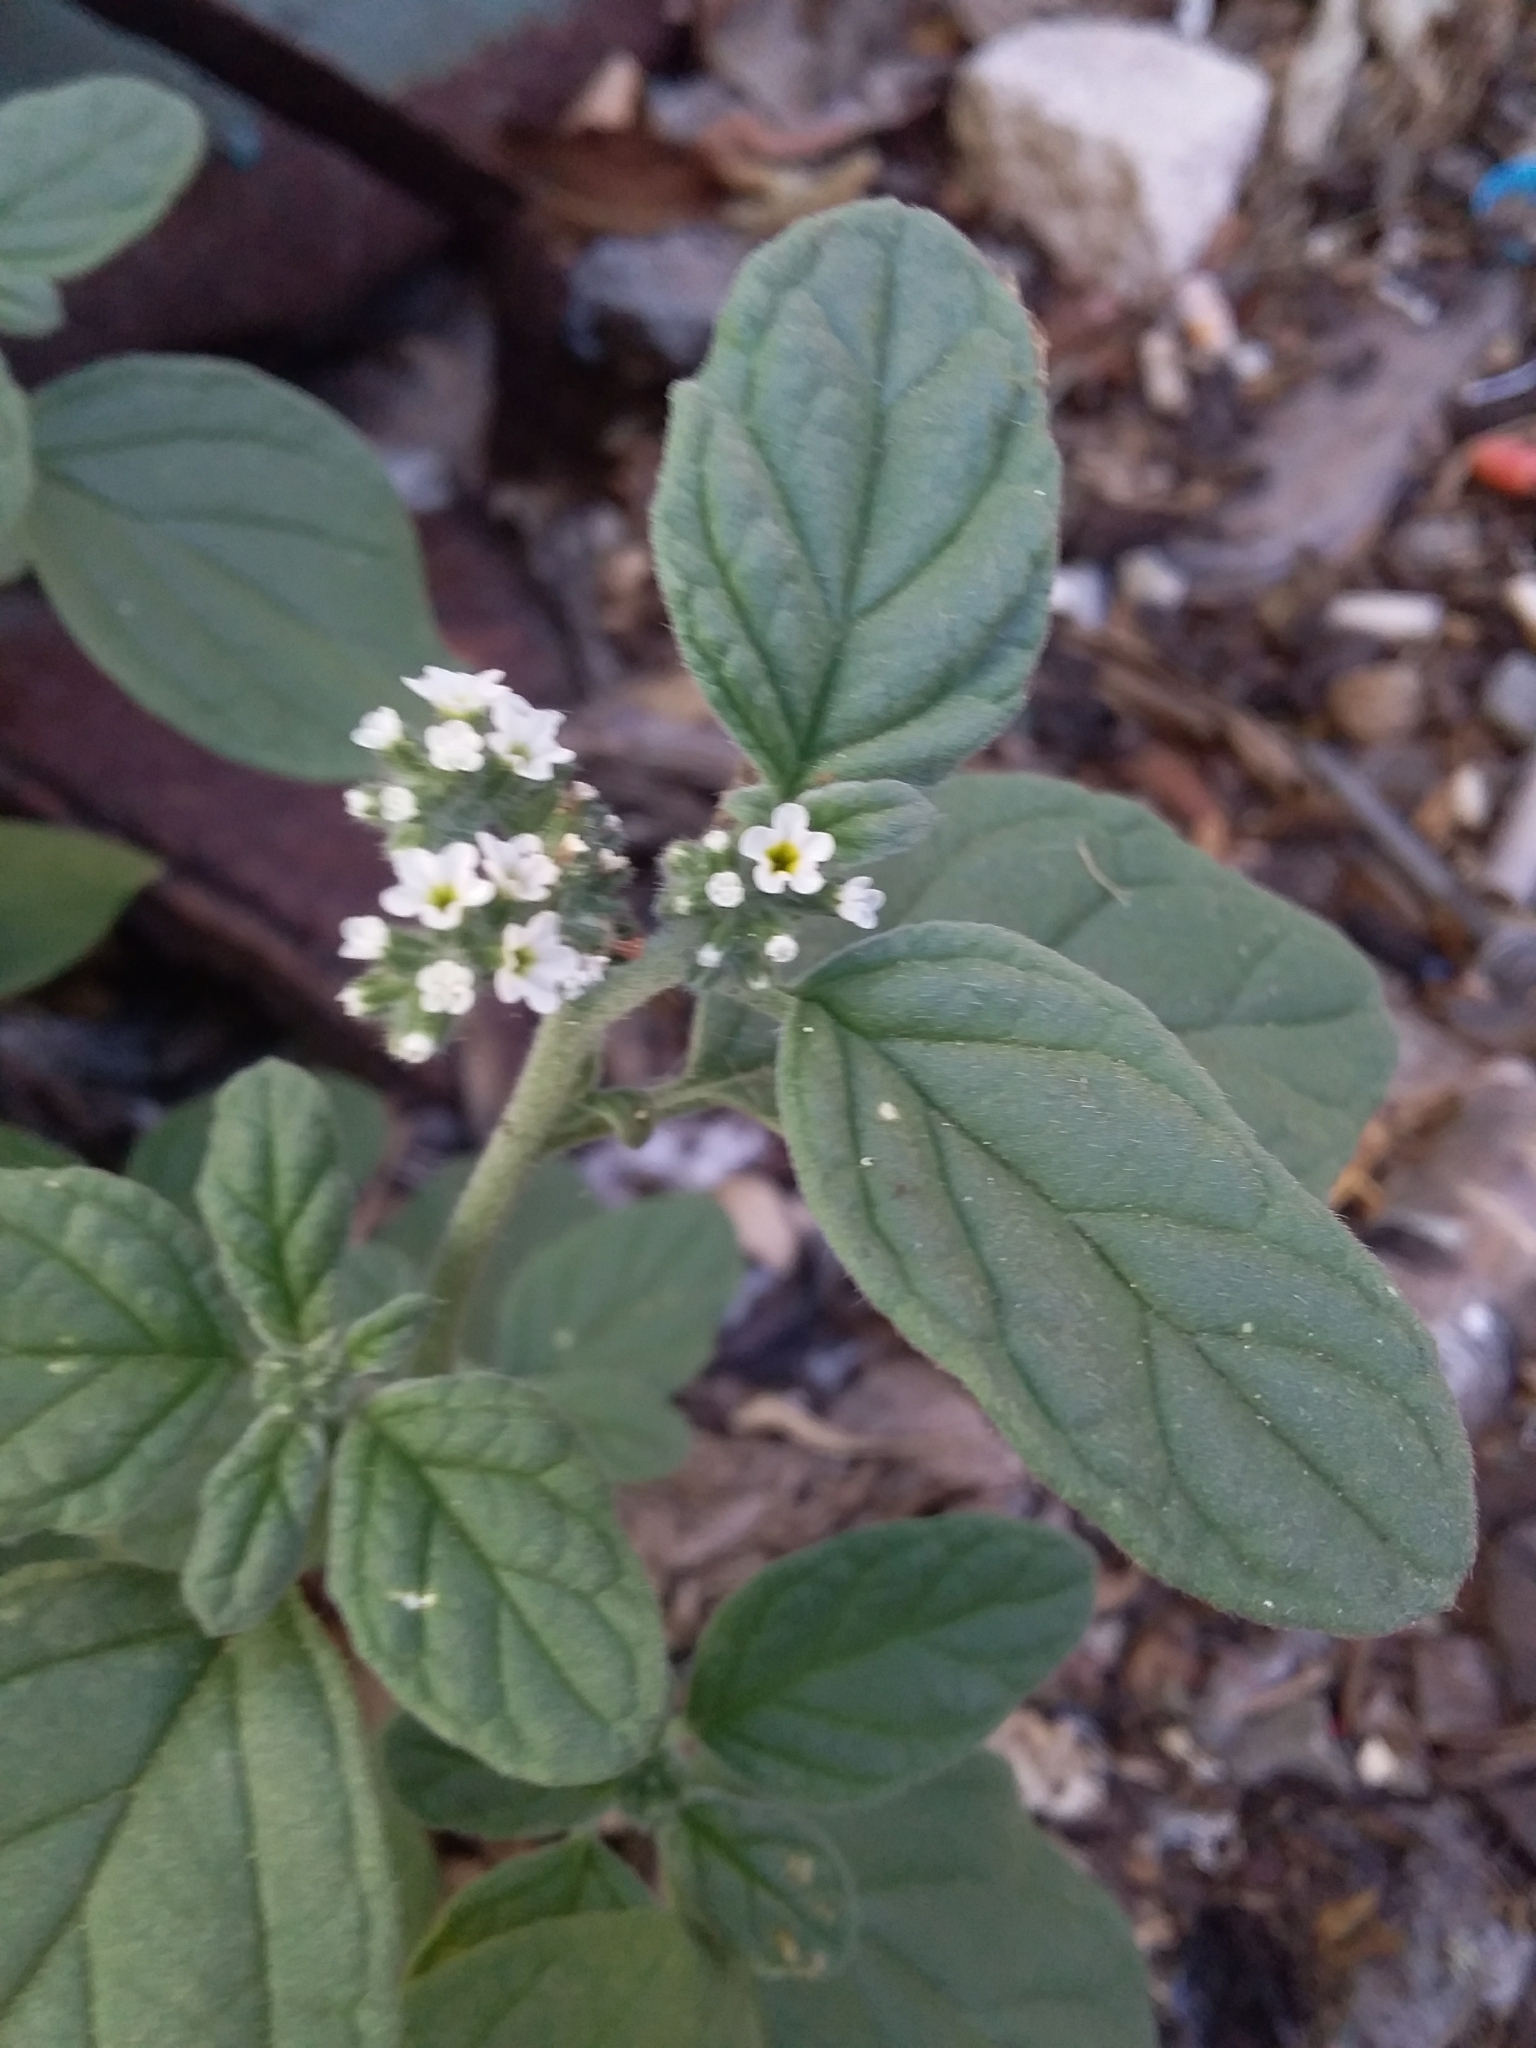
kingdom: Plantae
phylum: Tracheophyta
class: Magnoliopsida
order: Boraginales
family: Heliotropiaceae
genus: Heliotropium
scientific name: Heliotropium europaeum
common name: European heliotrope
